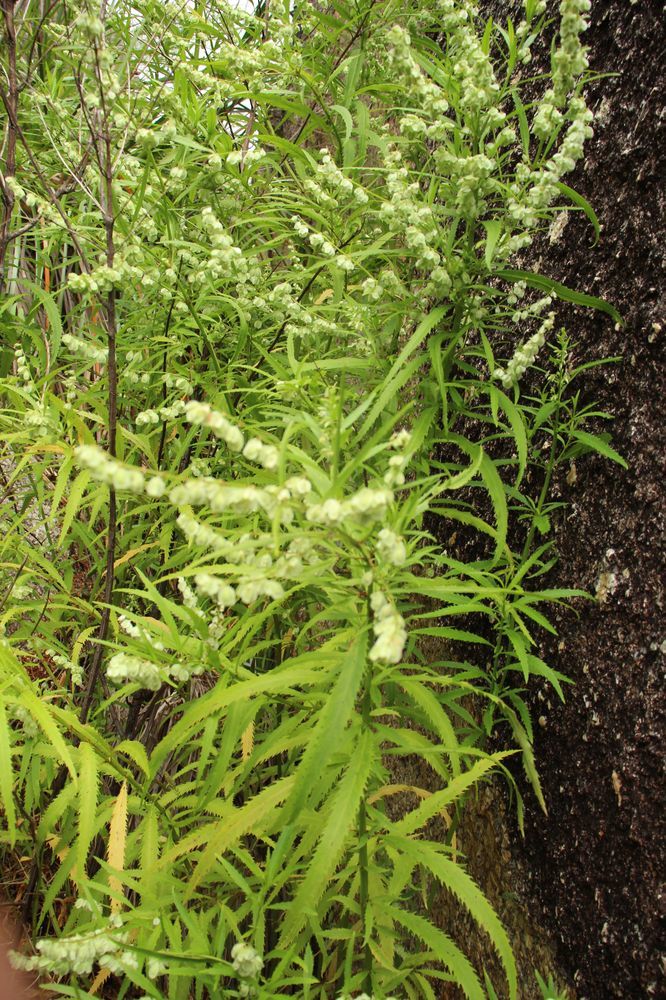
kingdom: Plantae
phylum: Tracheophyta
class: Magnoliopsida
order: Saxifragales
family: Haloragaceae
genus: Glischrocaryon
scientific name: Glischrocaryon racemosum
